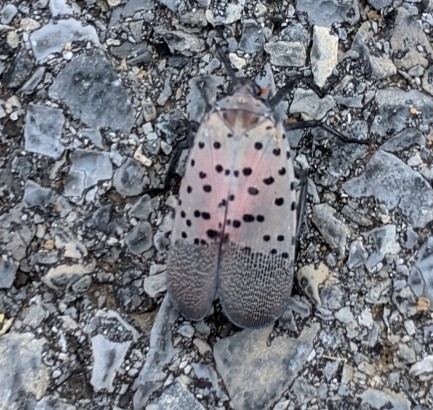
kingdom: Animalia
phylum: Arthropoda
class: Insecta
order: Hemiptera
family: Fulgoridae
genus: Lycorma
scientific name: Lycorma delicatula
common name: Spotted lanternfly
